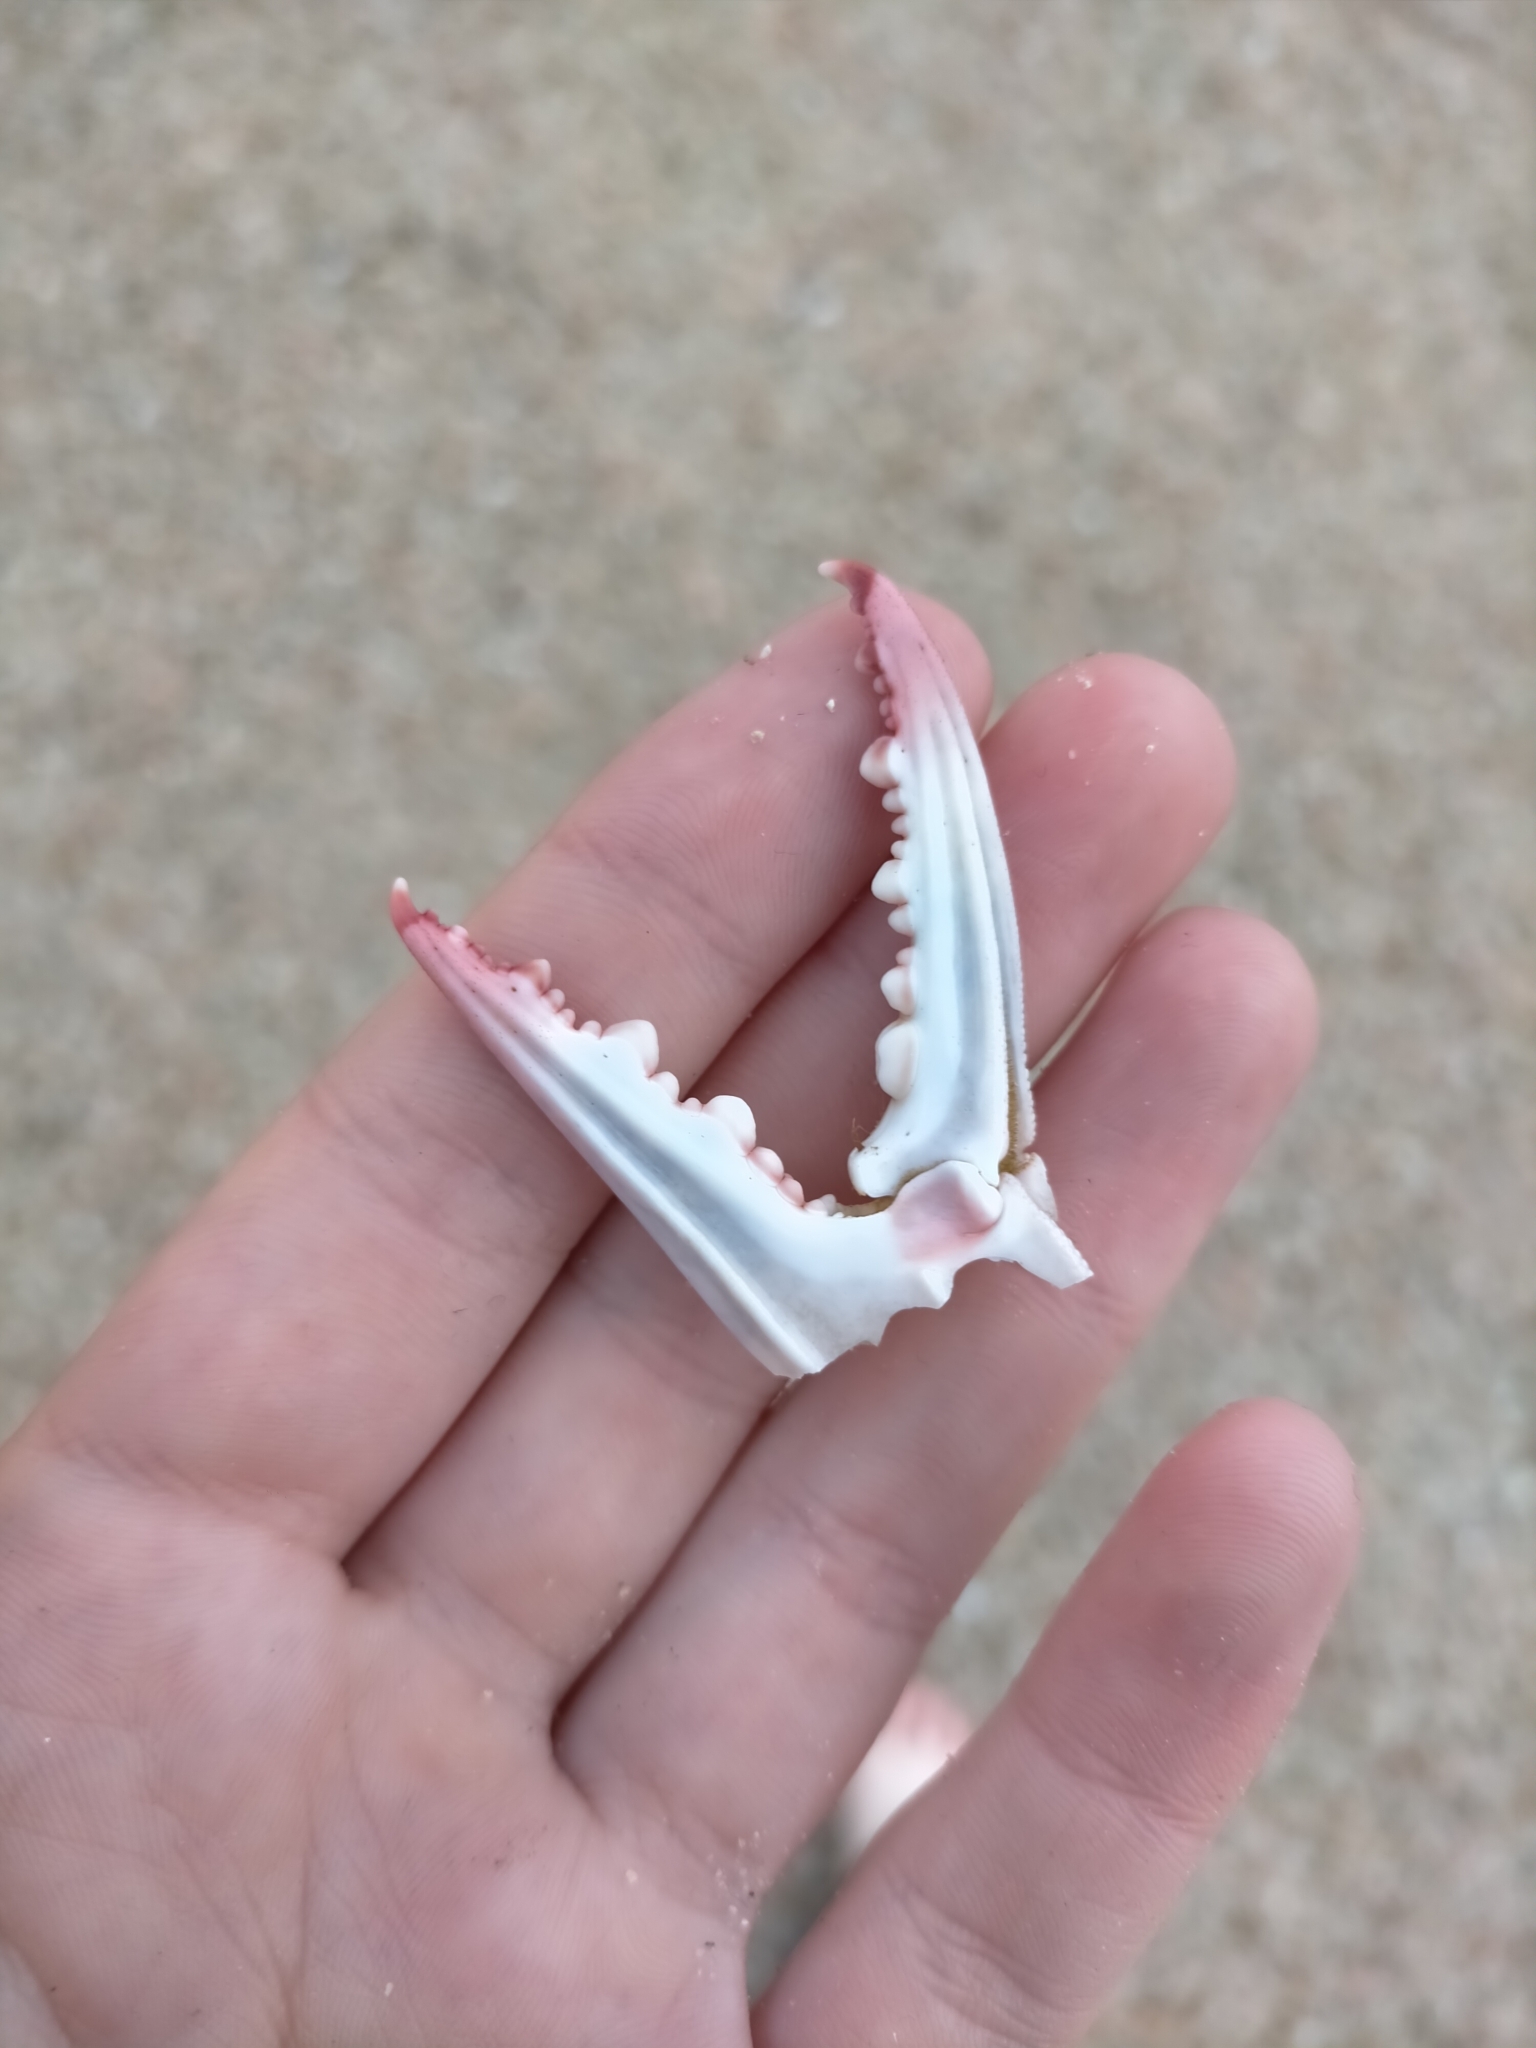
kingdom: Animalia
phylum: Arthropoda
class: Malacostraca
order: Decapoda
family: Portunidae
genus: Portunus
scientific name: Portunus armatus
